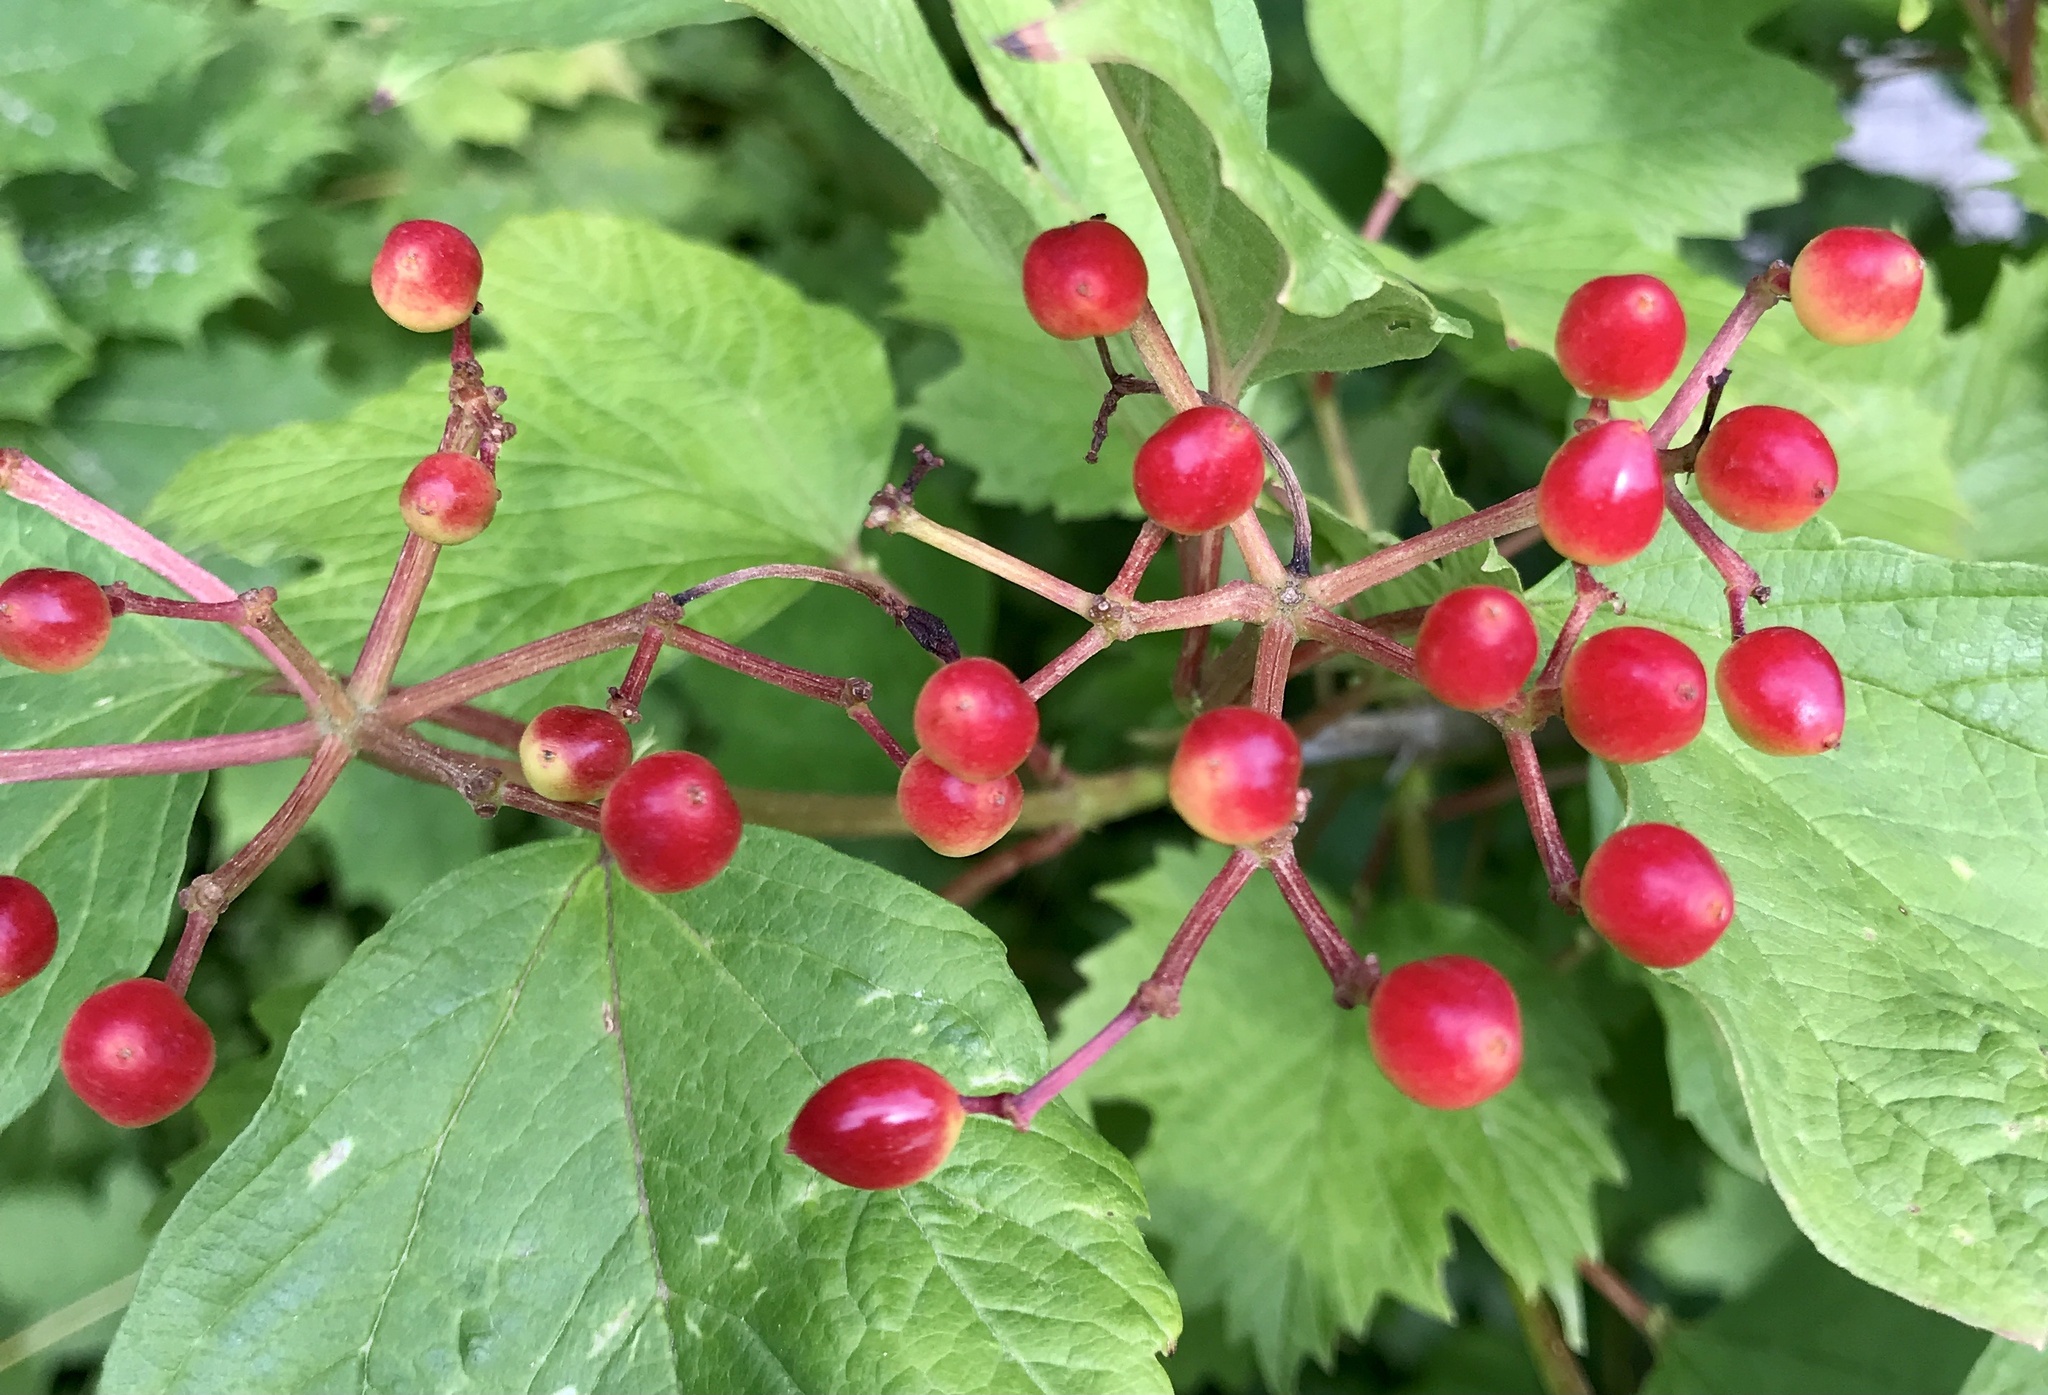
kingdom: Plantae
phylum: Tracheophyta
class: Magnoliopsida
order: Dipsacales
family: Viburnaceae
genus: Viburnum
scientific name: Viburnum opulus
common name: Guelder-rose
